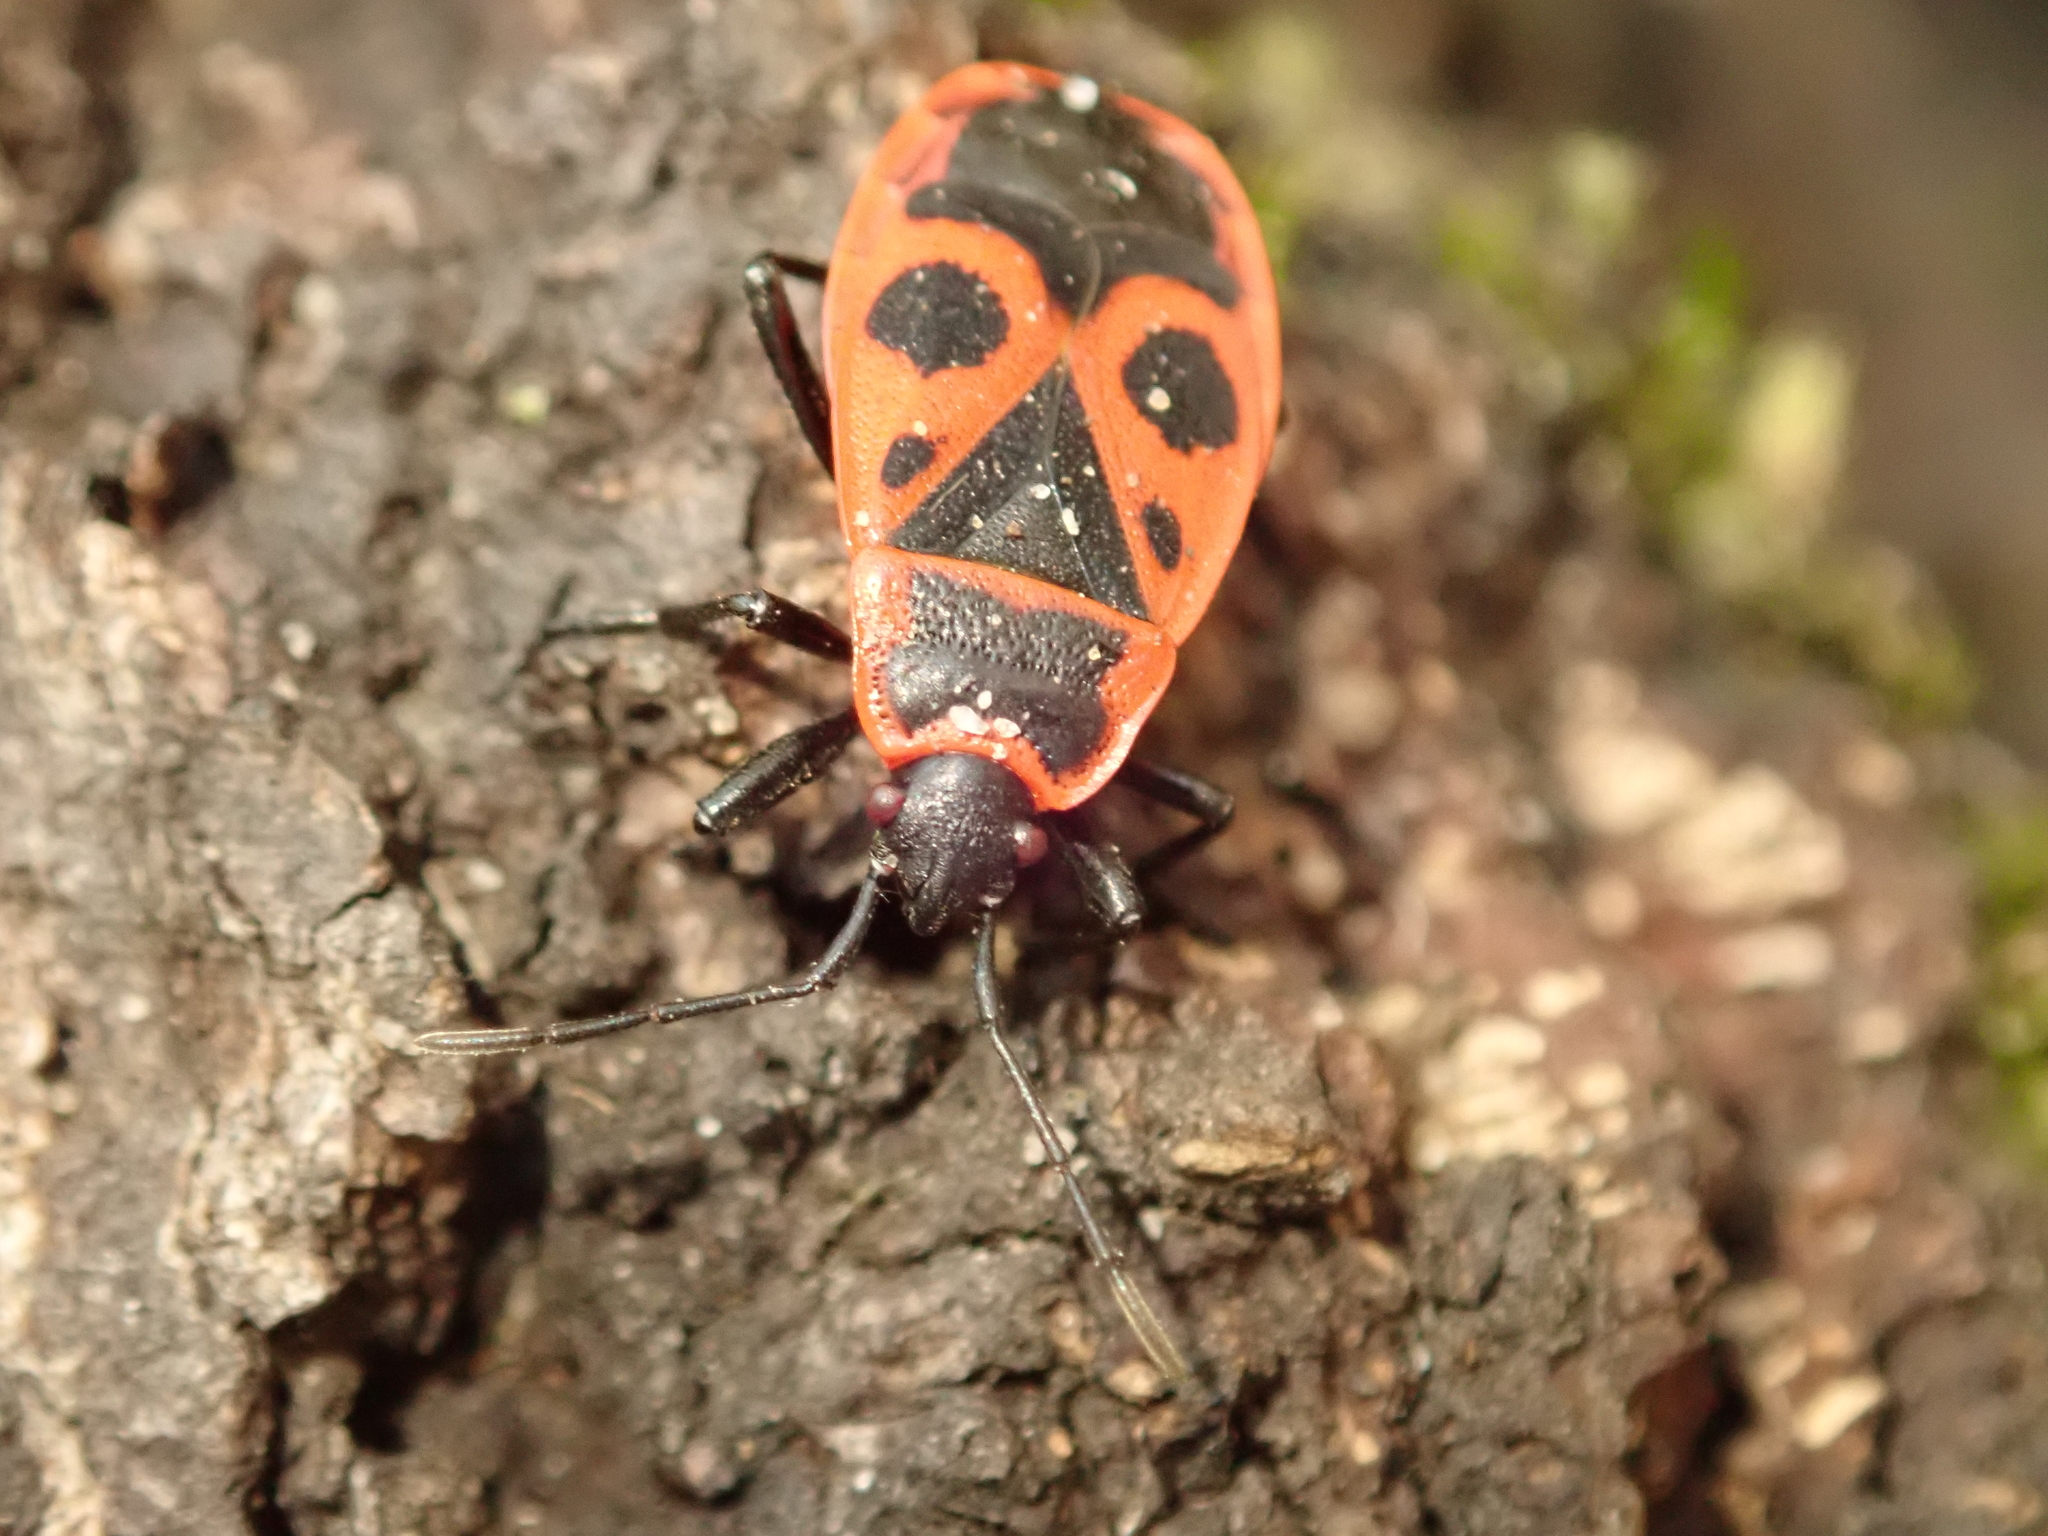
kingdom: Animalia
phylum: Arthropoda
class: Insecta
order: Hemiptera
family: Pyrrhocoridae
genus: Pyrrhocoris
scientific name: Pyrrhocoris apterus
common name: Firebug
